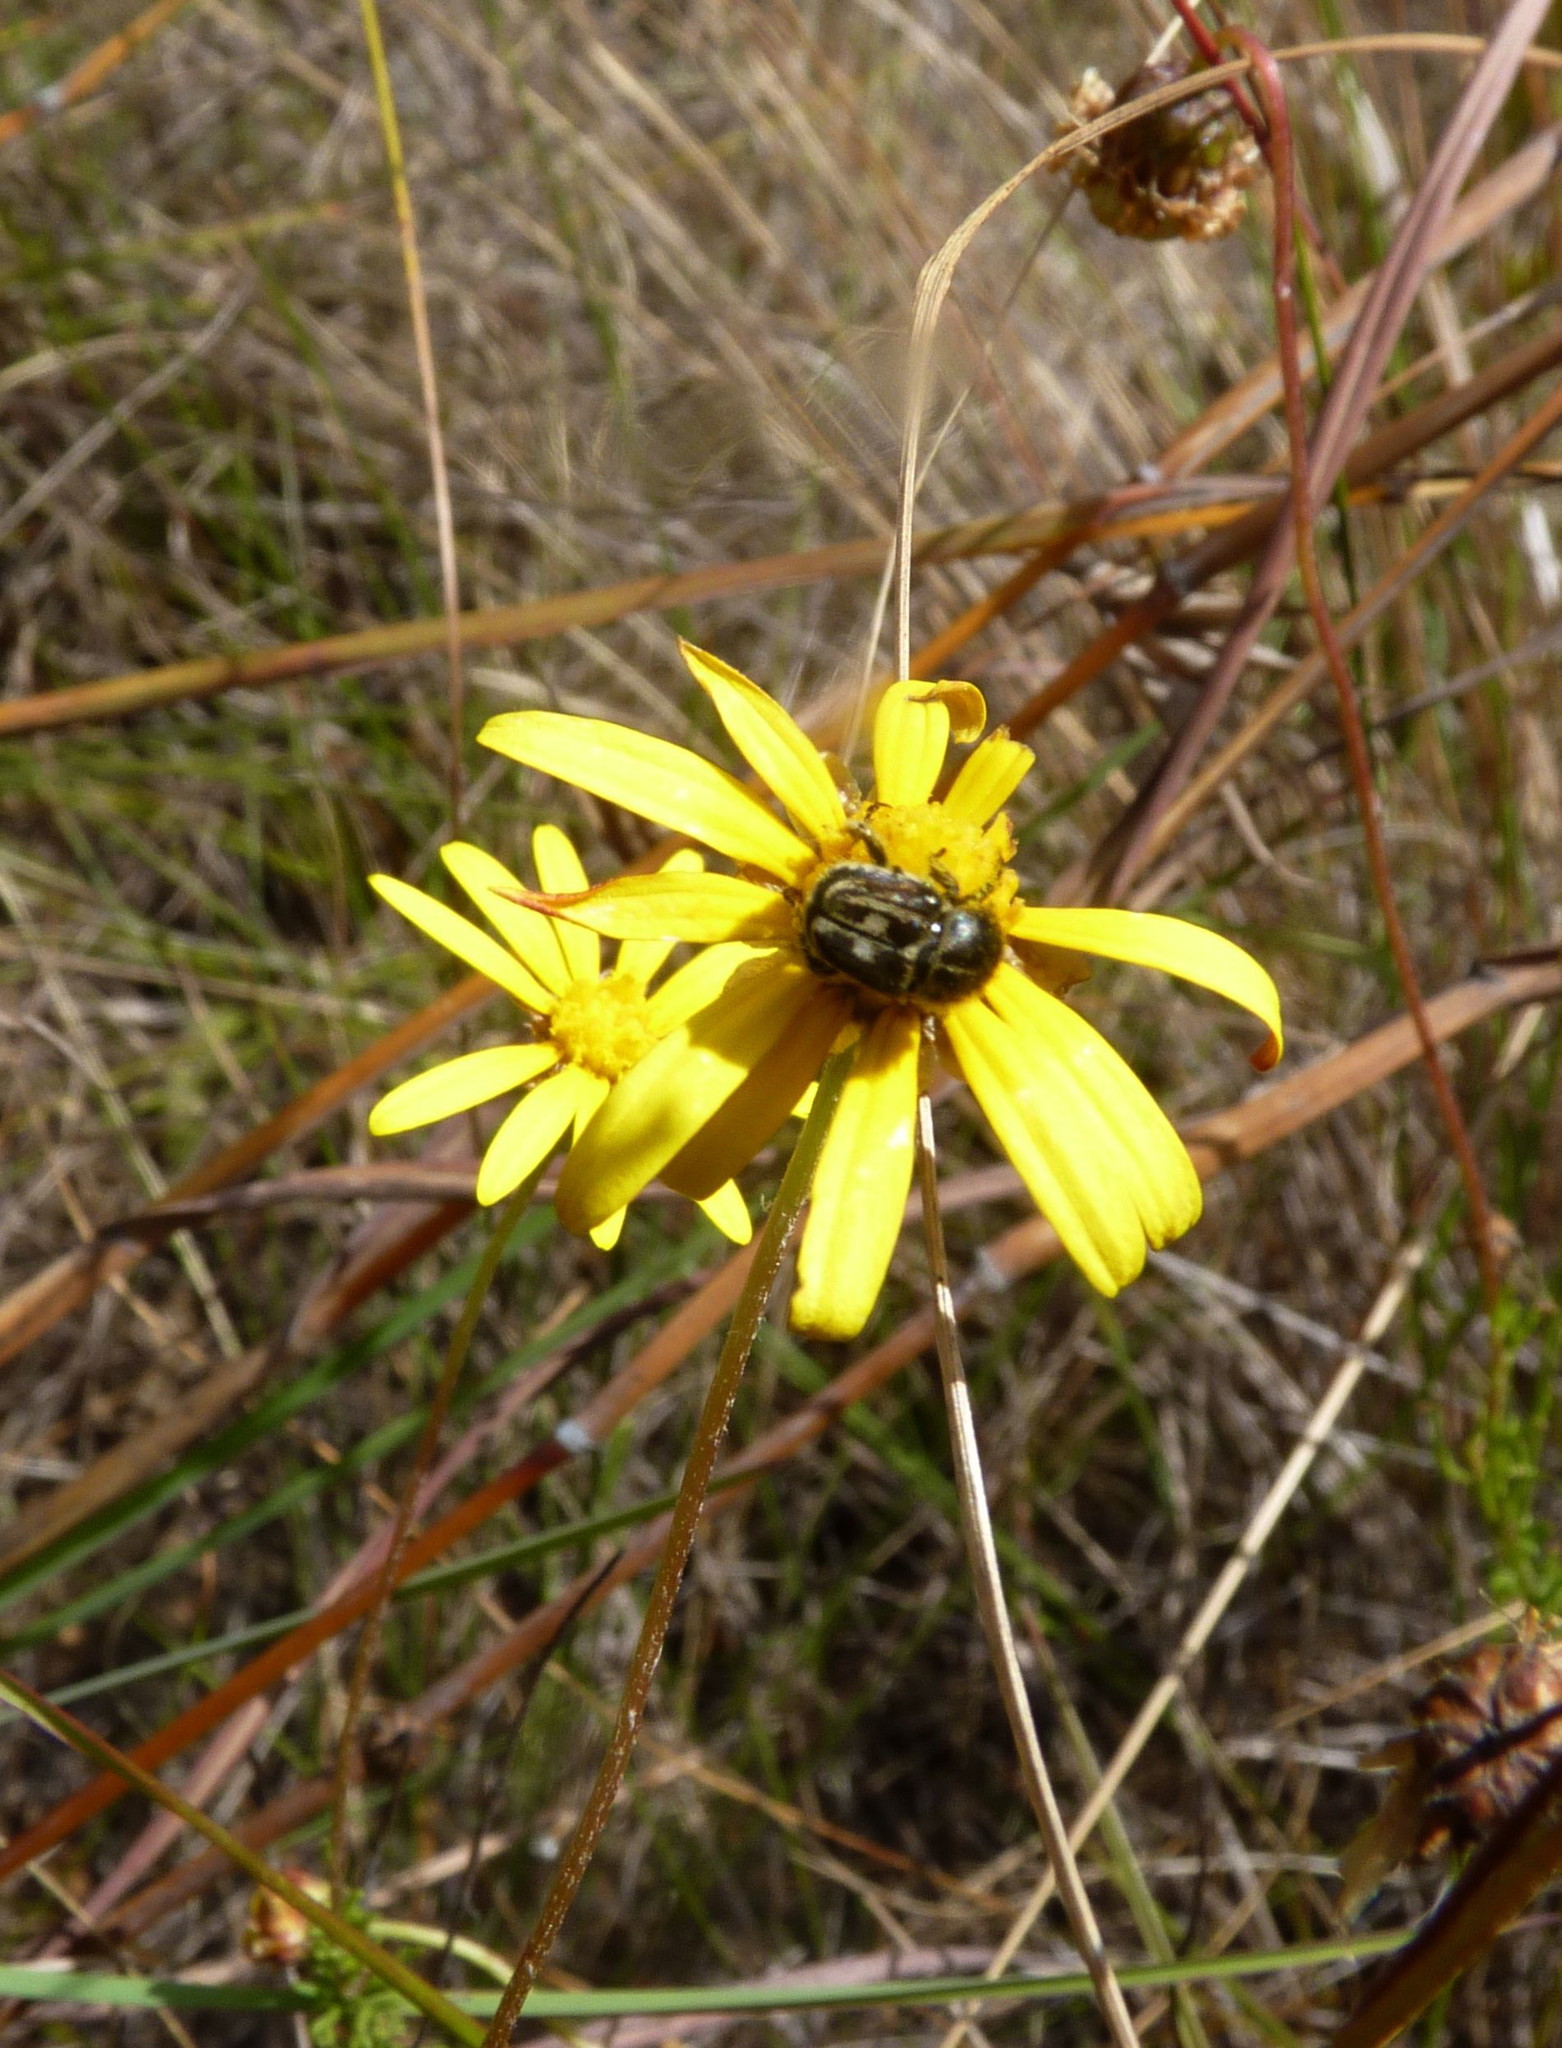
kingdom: Plantae
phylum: Tracheophyta
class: Magnoliopsida
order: Asterales
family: Asteraceae
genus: Ursinia
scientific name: Ursinia trifida
